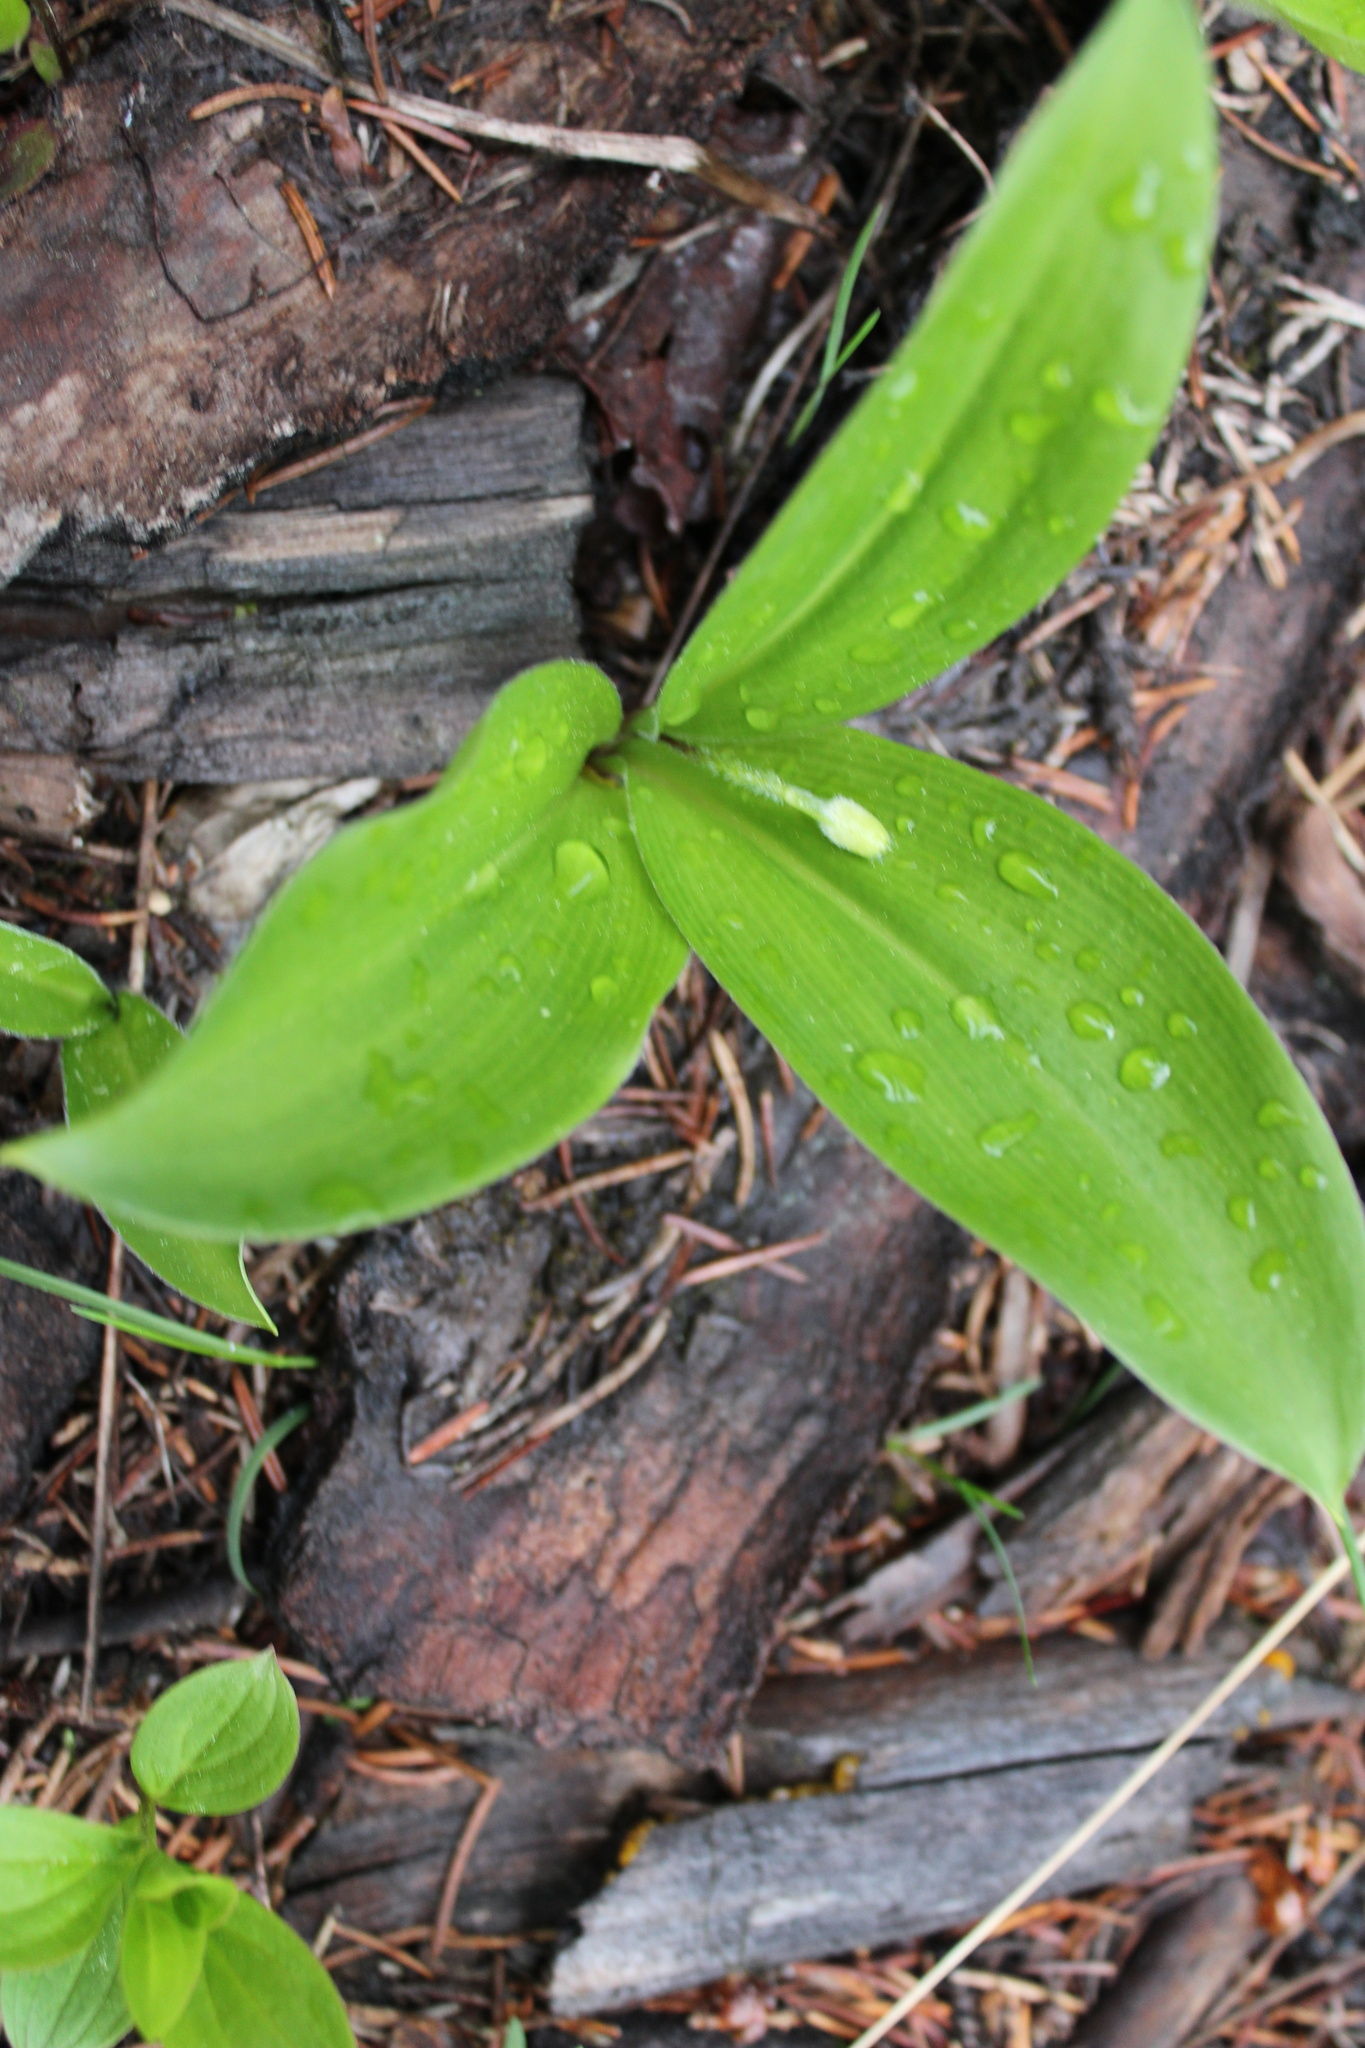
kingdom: Plantae
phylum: Tracheophyta
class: Liliopsida
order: Liliales
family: Liliaceae
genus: Clintonia
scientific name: Clintonia uniflora
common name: Queen's cup
